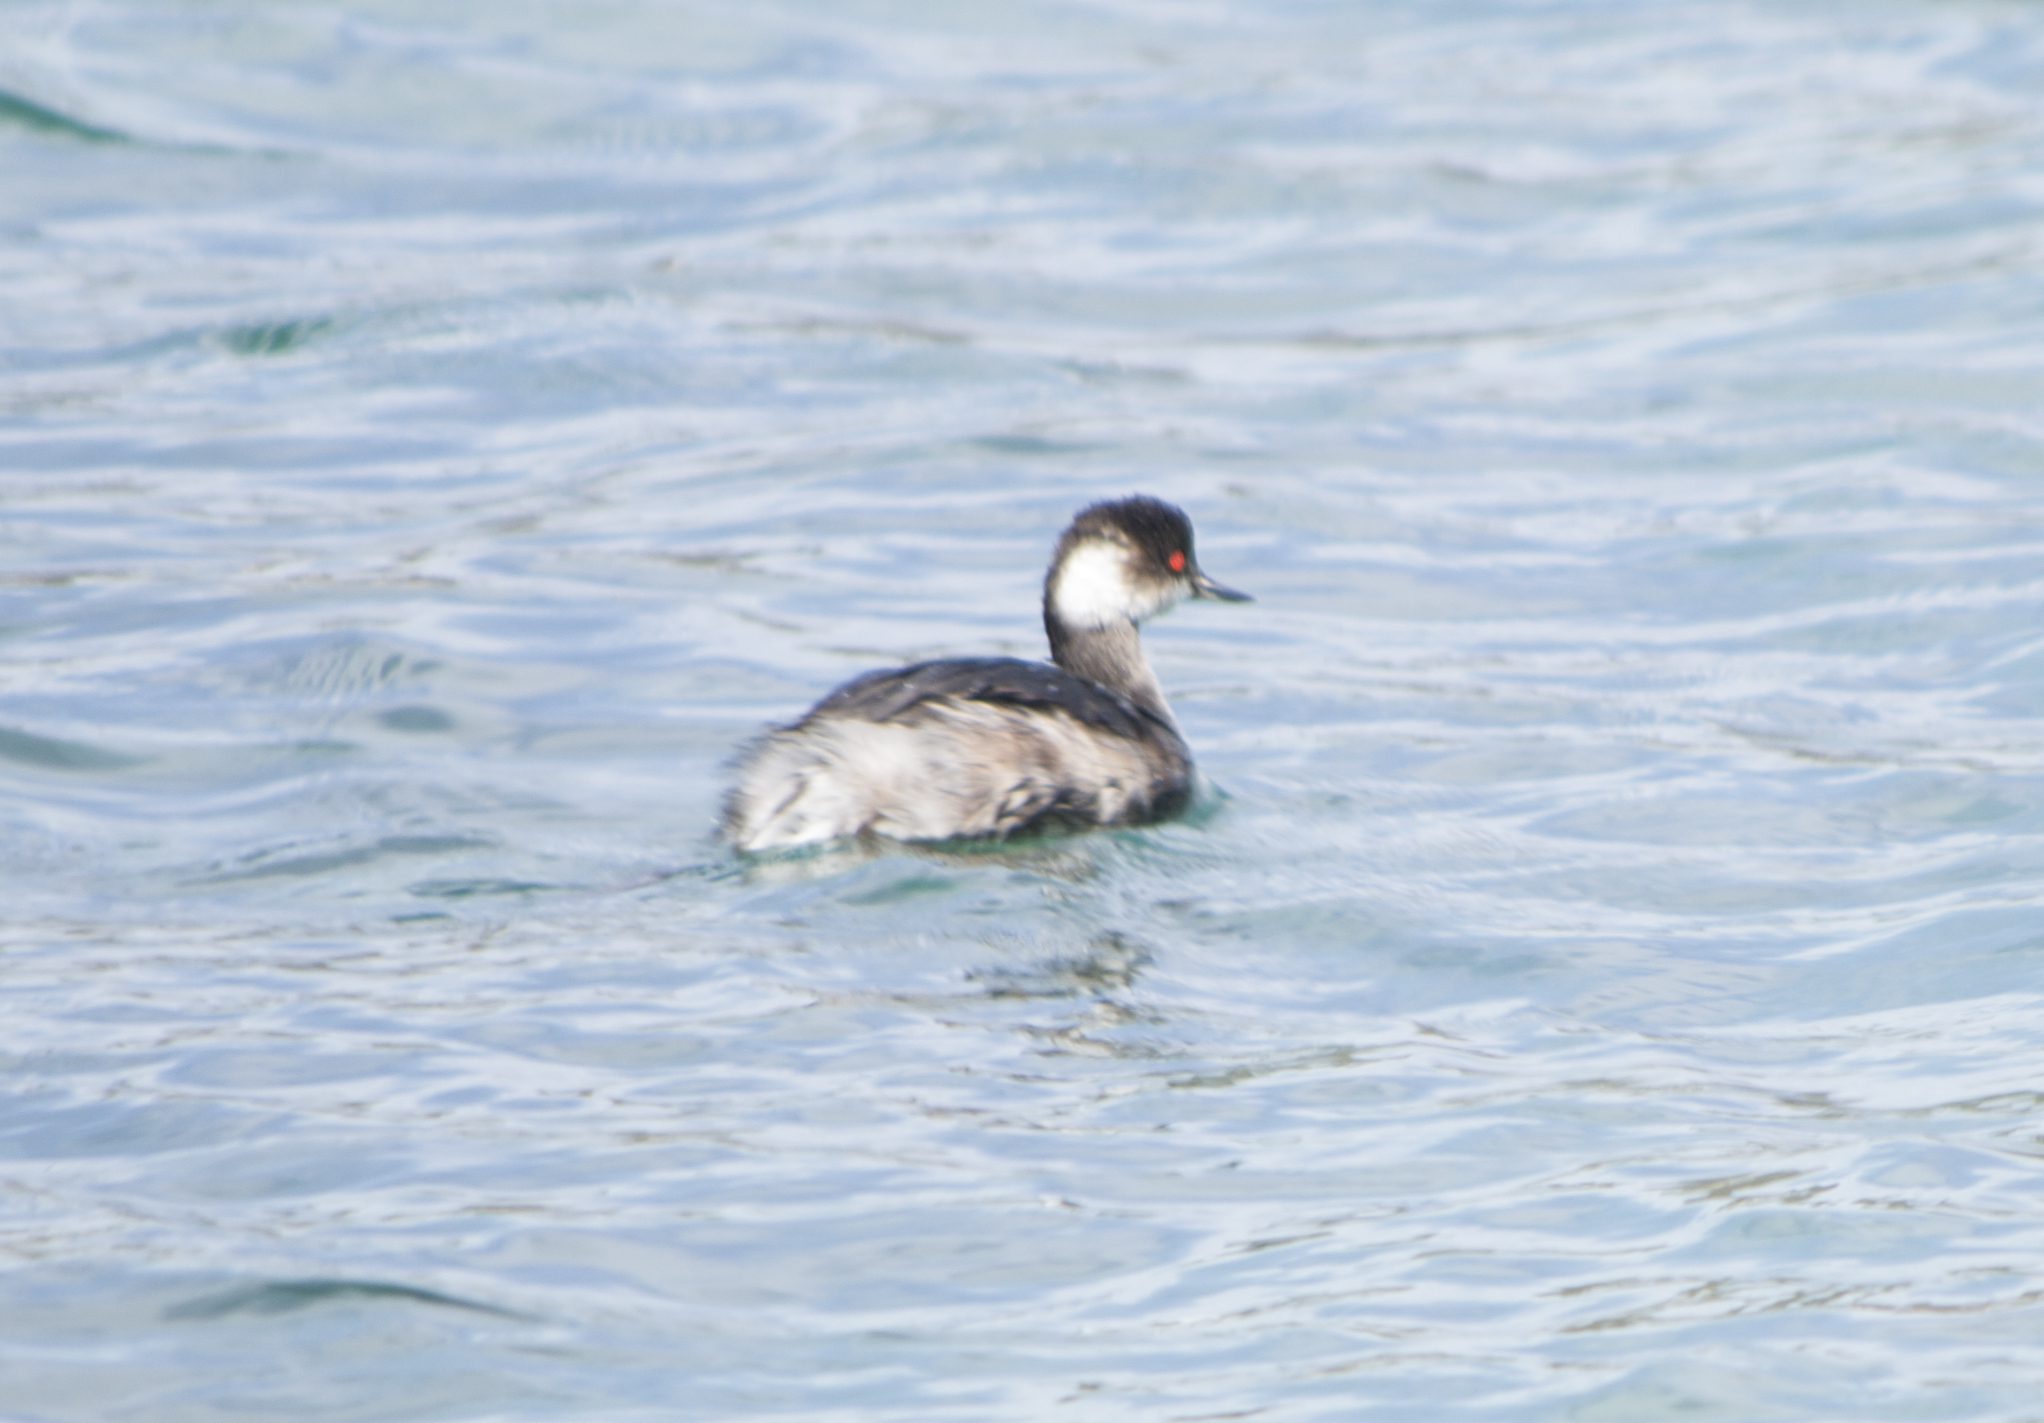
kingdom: Animalia
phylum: Chordata
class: Aves
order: Podicipediformes
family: Podicipedidae
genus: Podiceps
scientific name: Podiceps nigricollis
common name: Black-necked grebe
